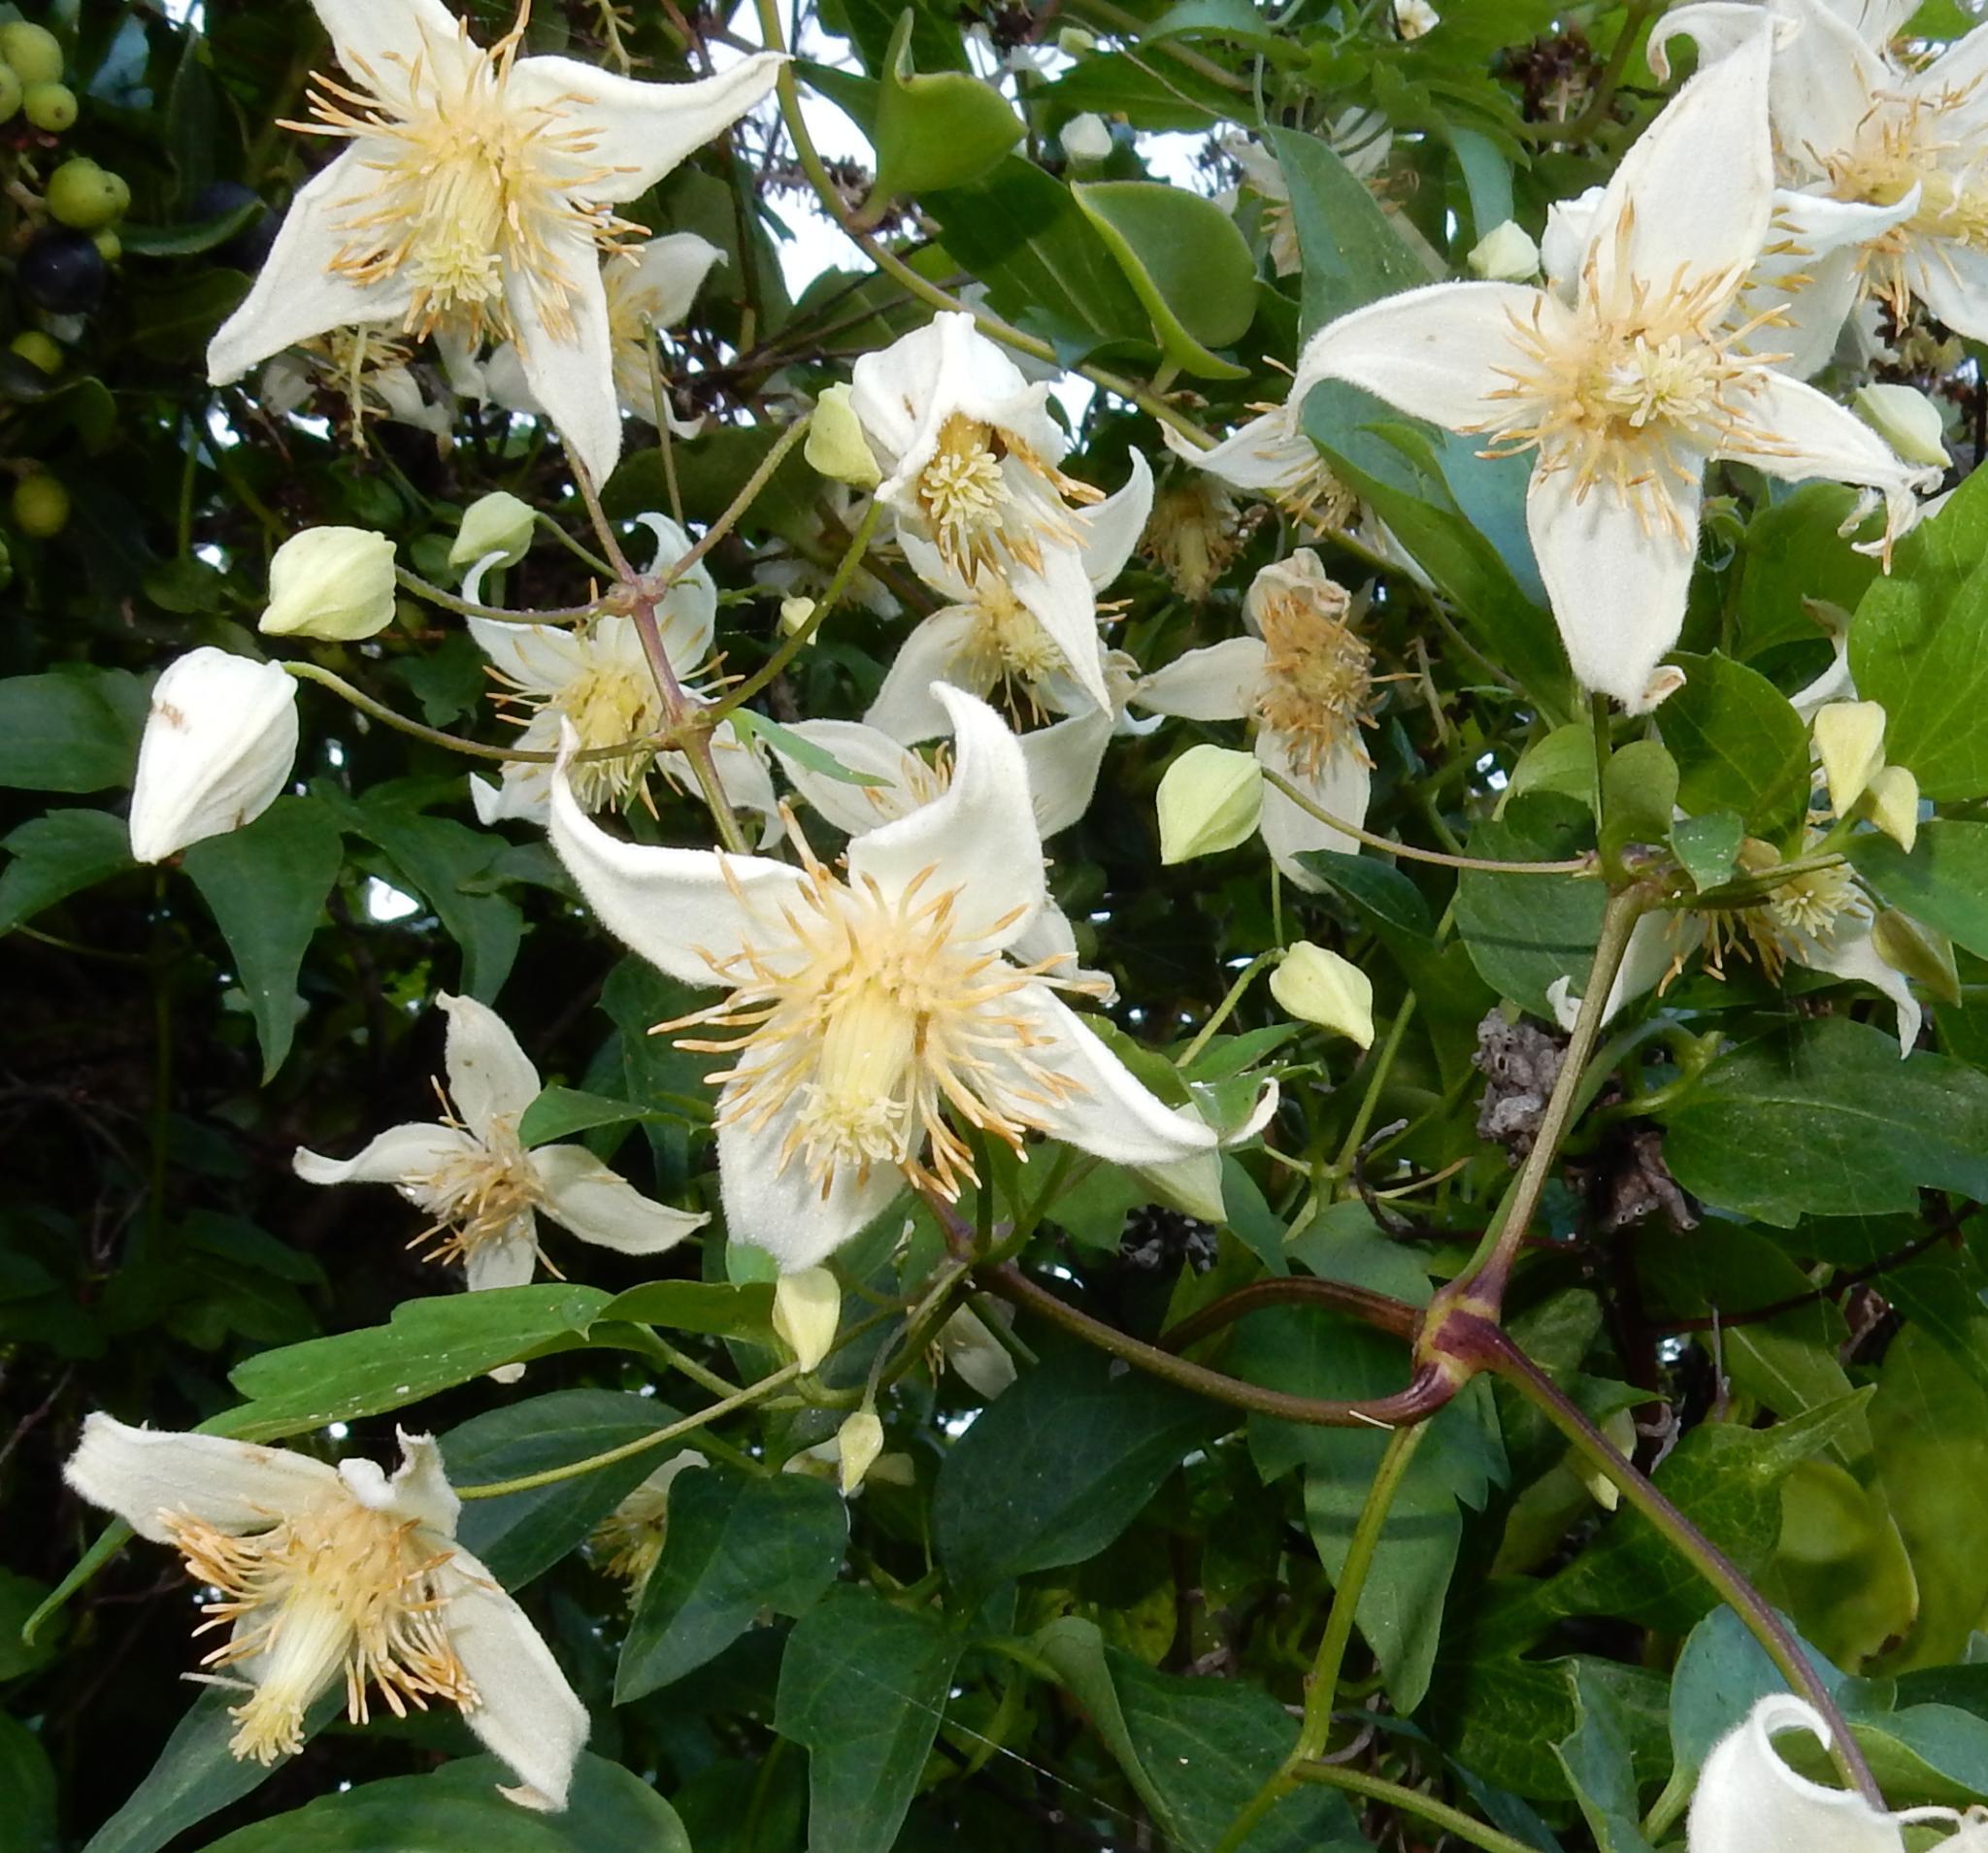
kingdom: Plantae
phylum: Tracheophyta
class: Magnoliopsida
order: Ranunculales
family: Ranunculaceae
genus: Clematis
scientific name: Clematis brachiata
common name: Traveler's-joy
